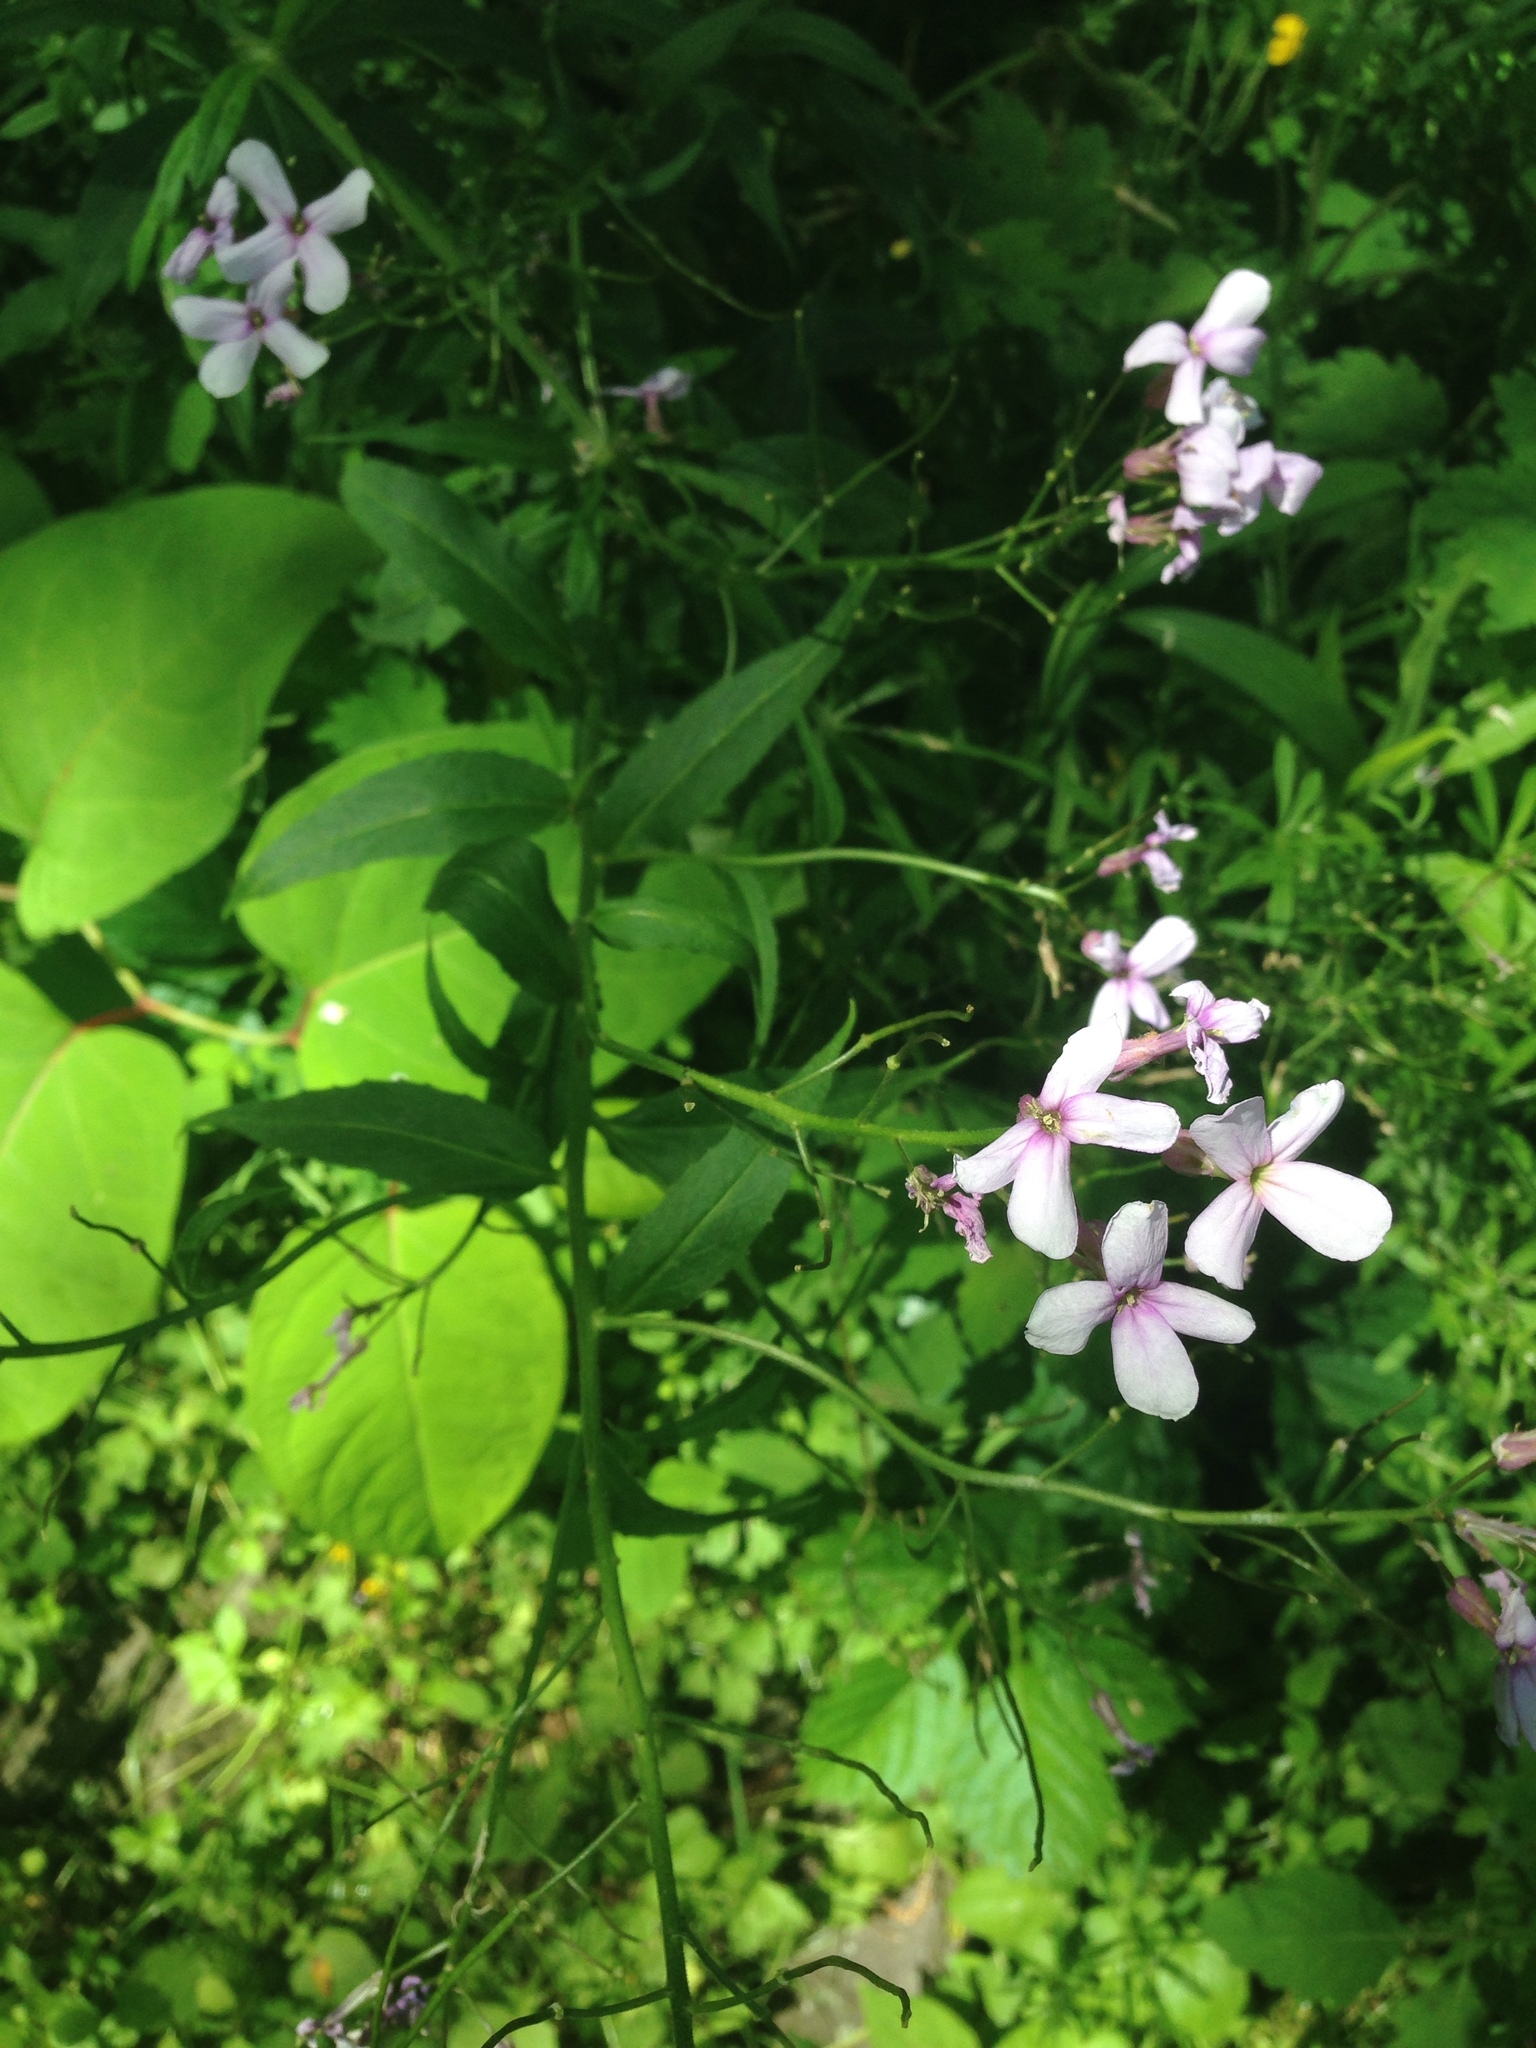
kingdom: Plantae
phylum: Tracheophyta
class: Magnoliopsida
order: Brassicales
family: Brassicaceae
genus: Hesperis
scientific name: Hesperis matronalis
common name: Dame's-violet
